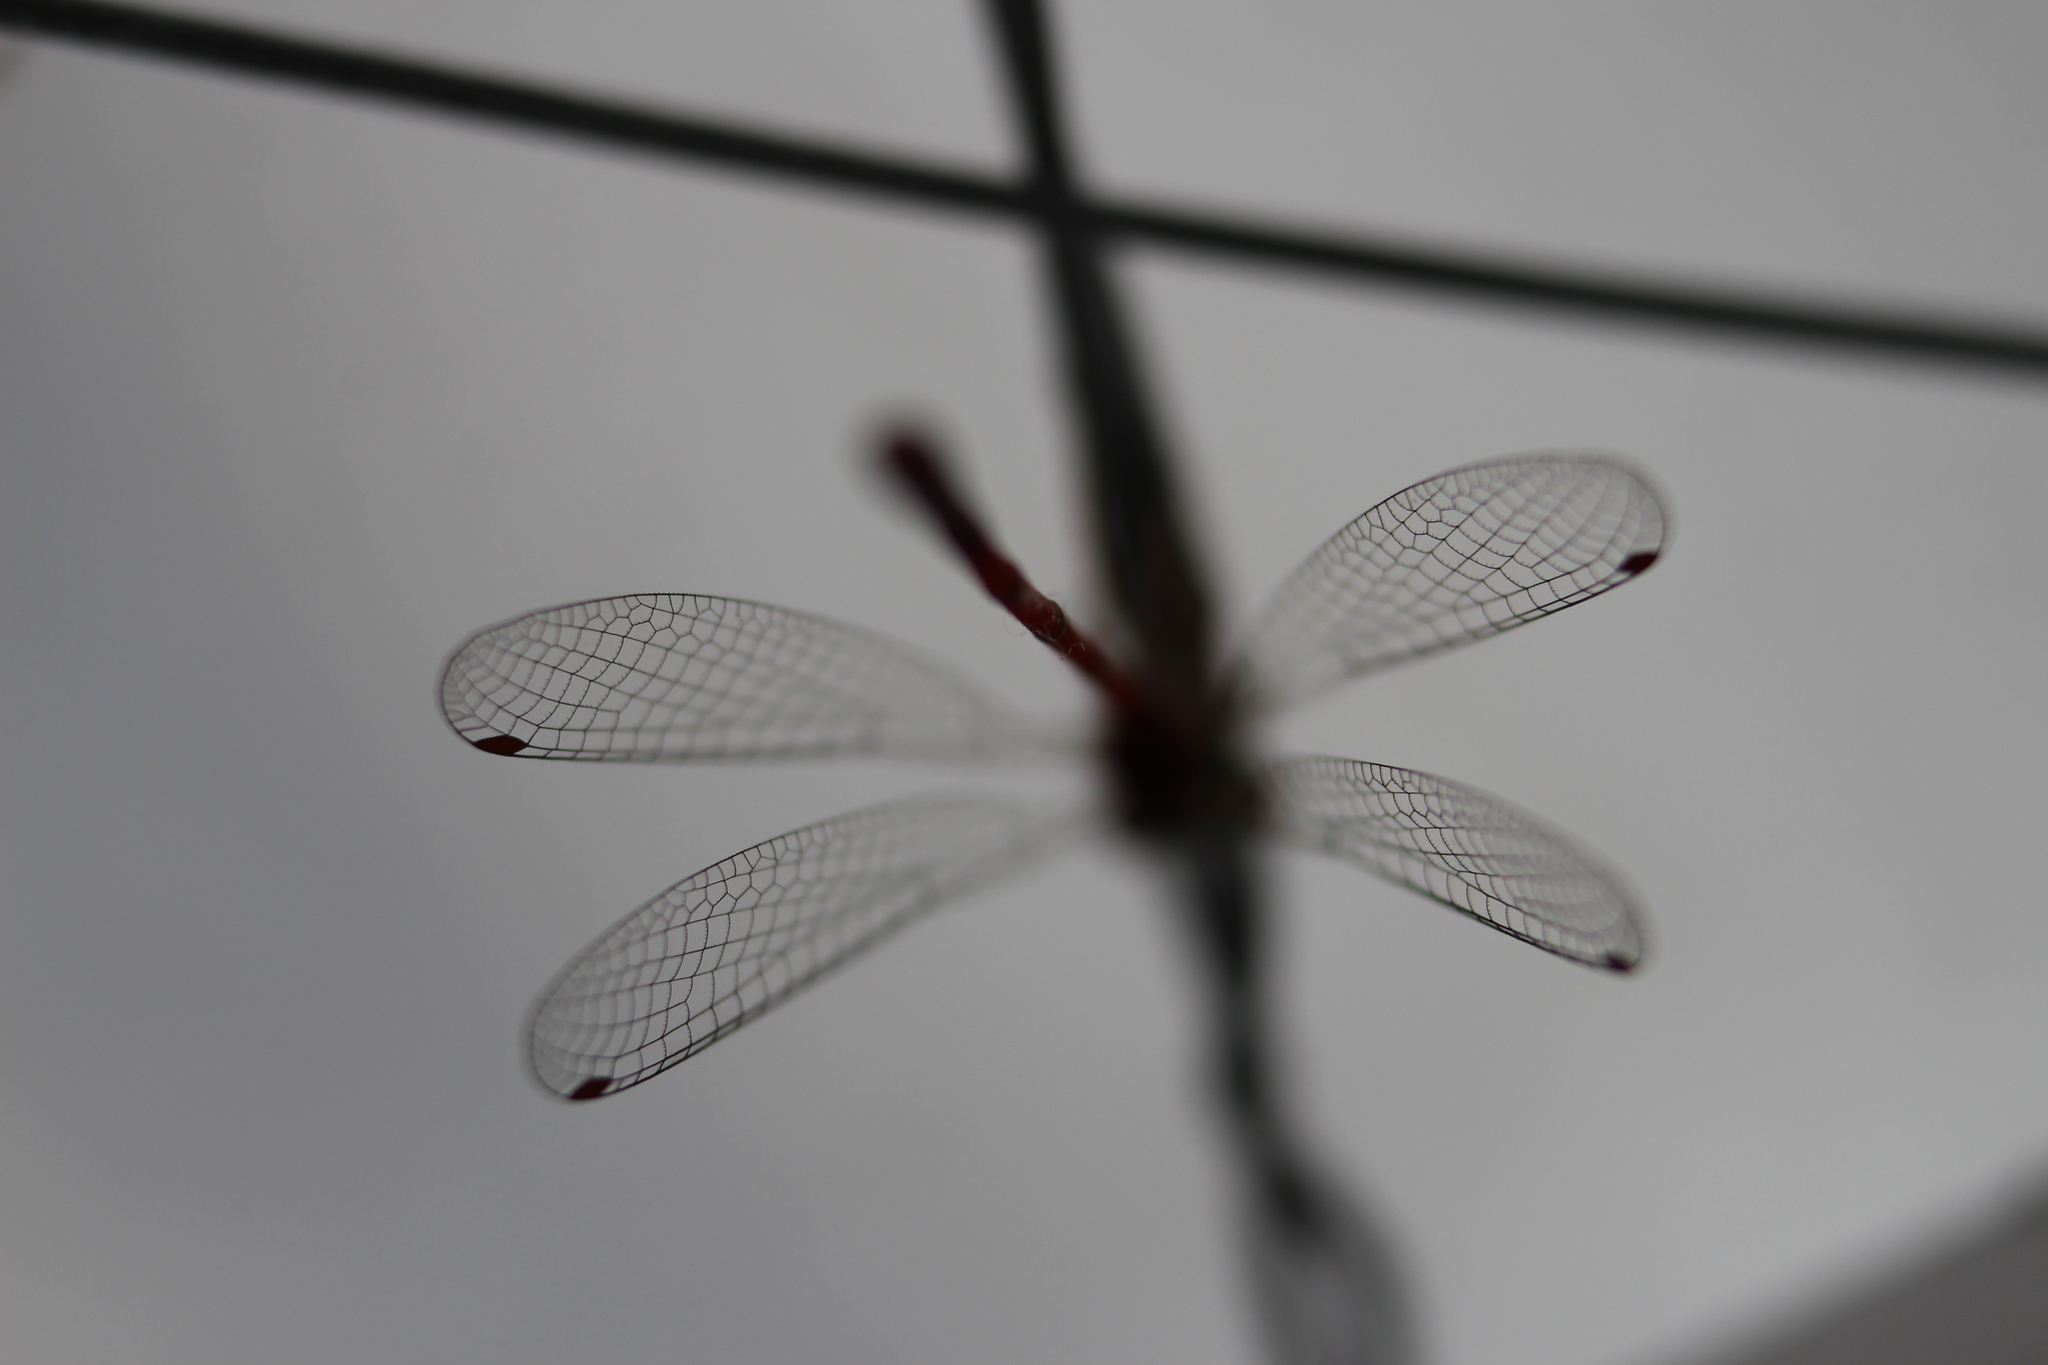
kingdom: Animalia
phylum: Arthropoda
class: Insecta
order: Odonata
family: Coenagrionidae
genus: Xanthocnemis
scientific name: Xanthocnemis zealandica
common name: Common redcoat damselfly
